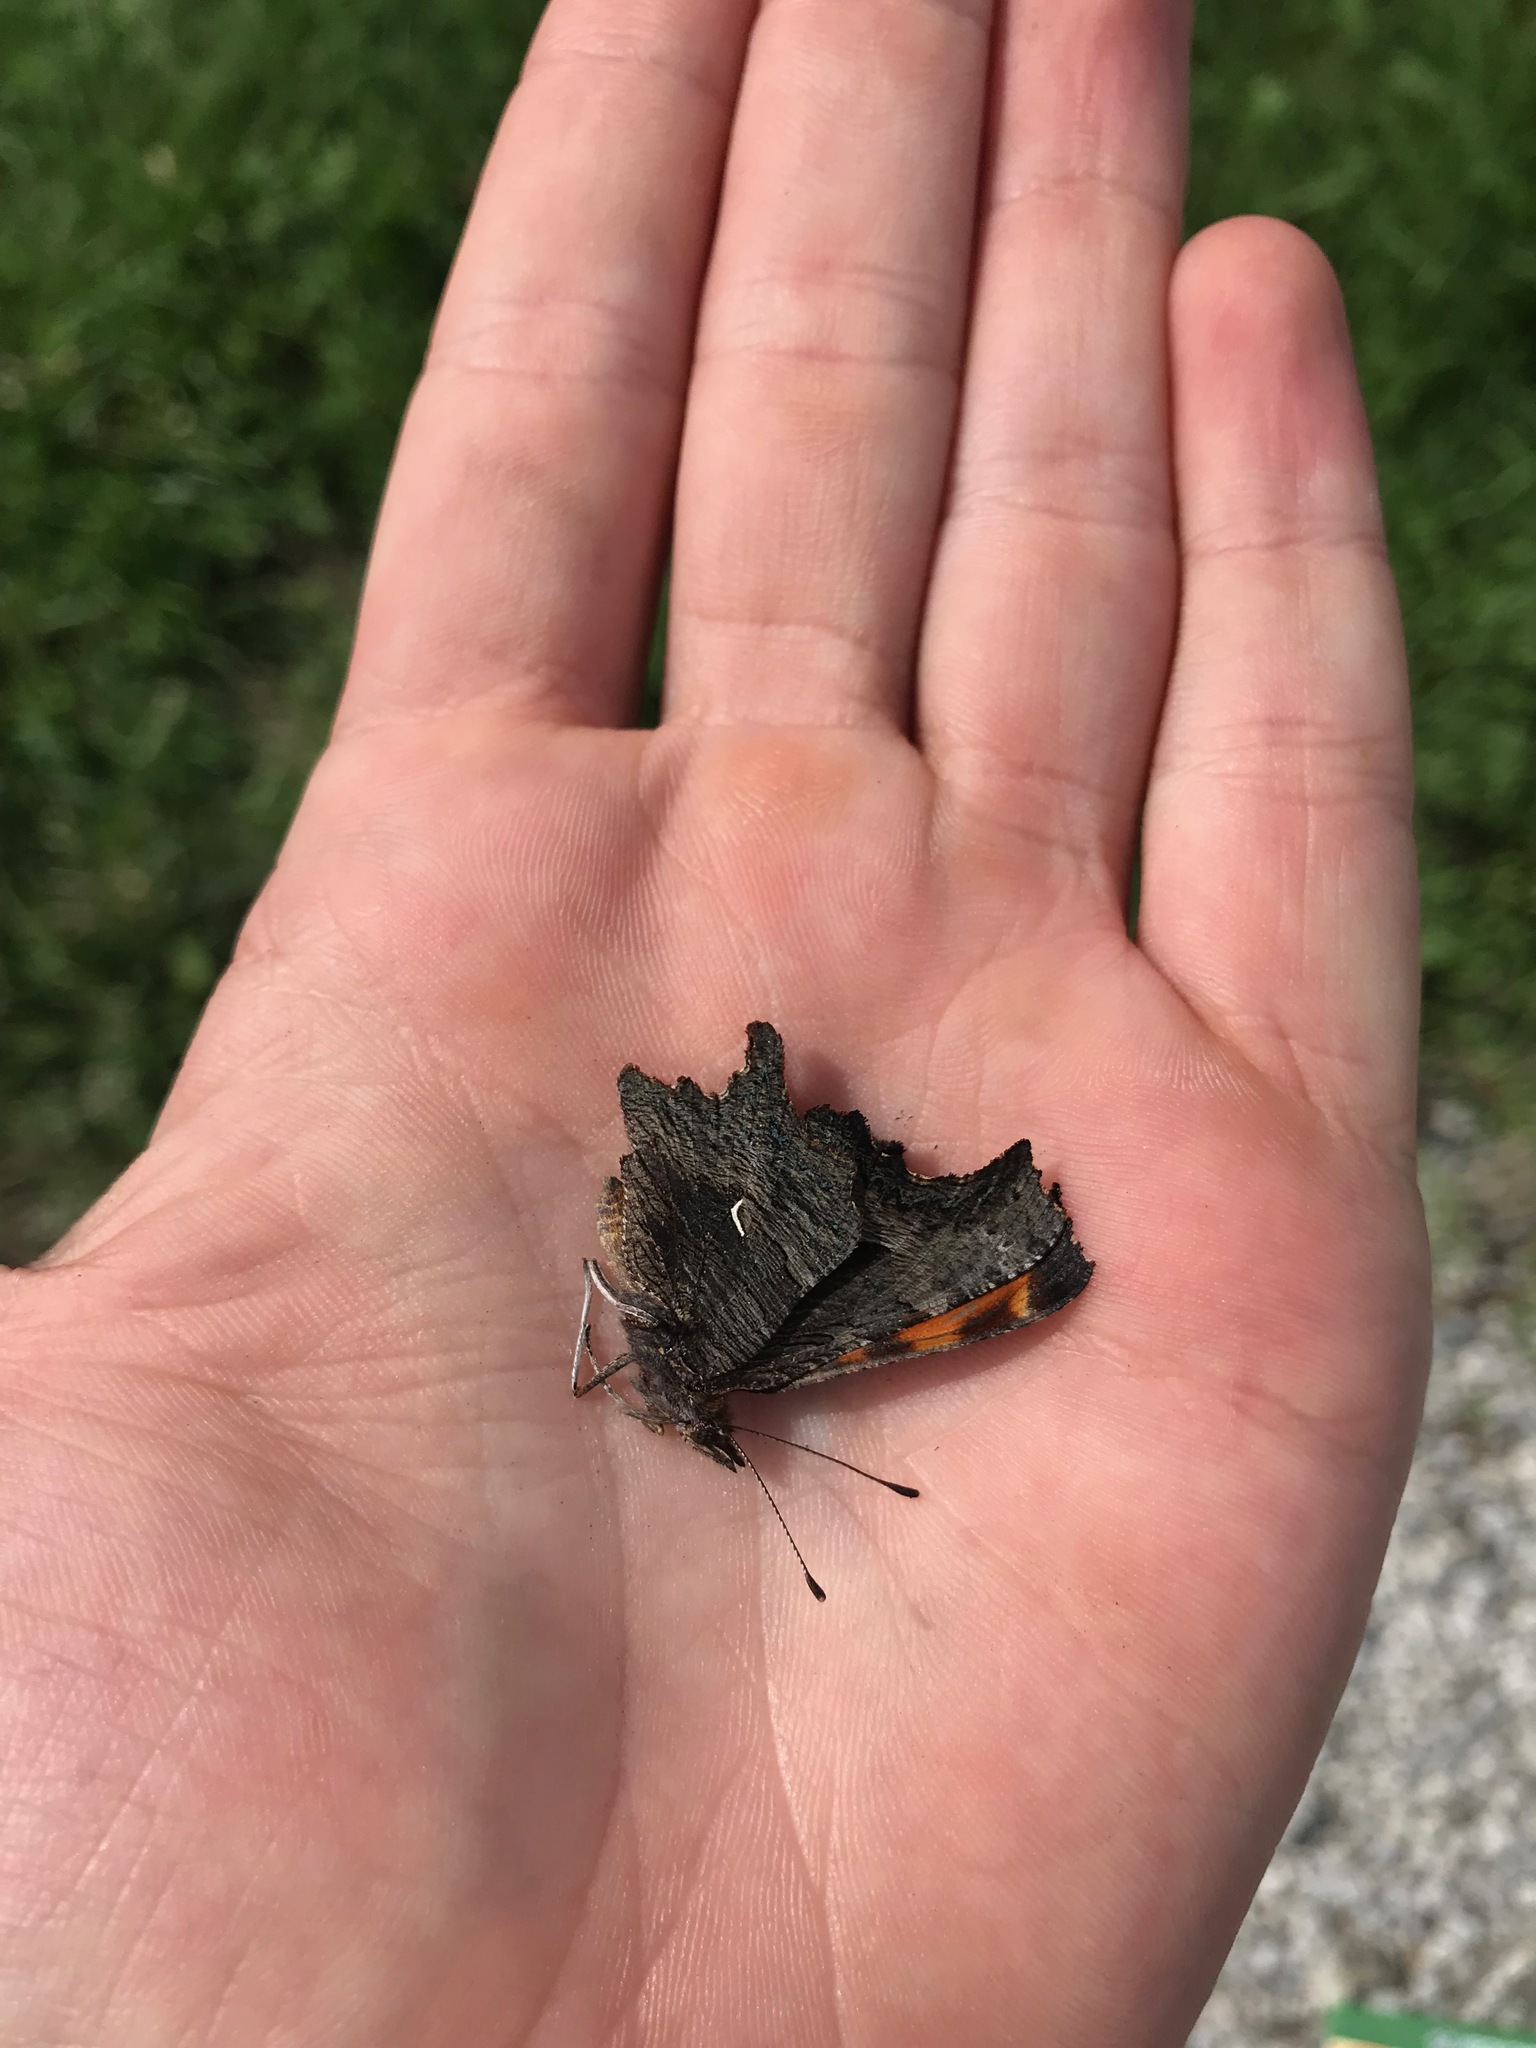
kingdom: Animalia
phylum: Arthropoda
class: Insecta
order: Lepidoptera
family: Nymphalidae
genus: Polygonia
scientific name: Polygonia progne
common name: Gray comma
